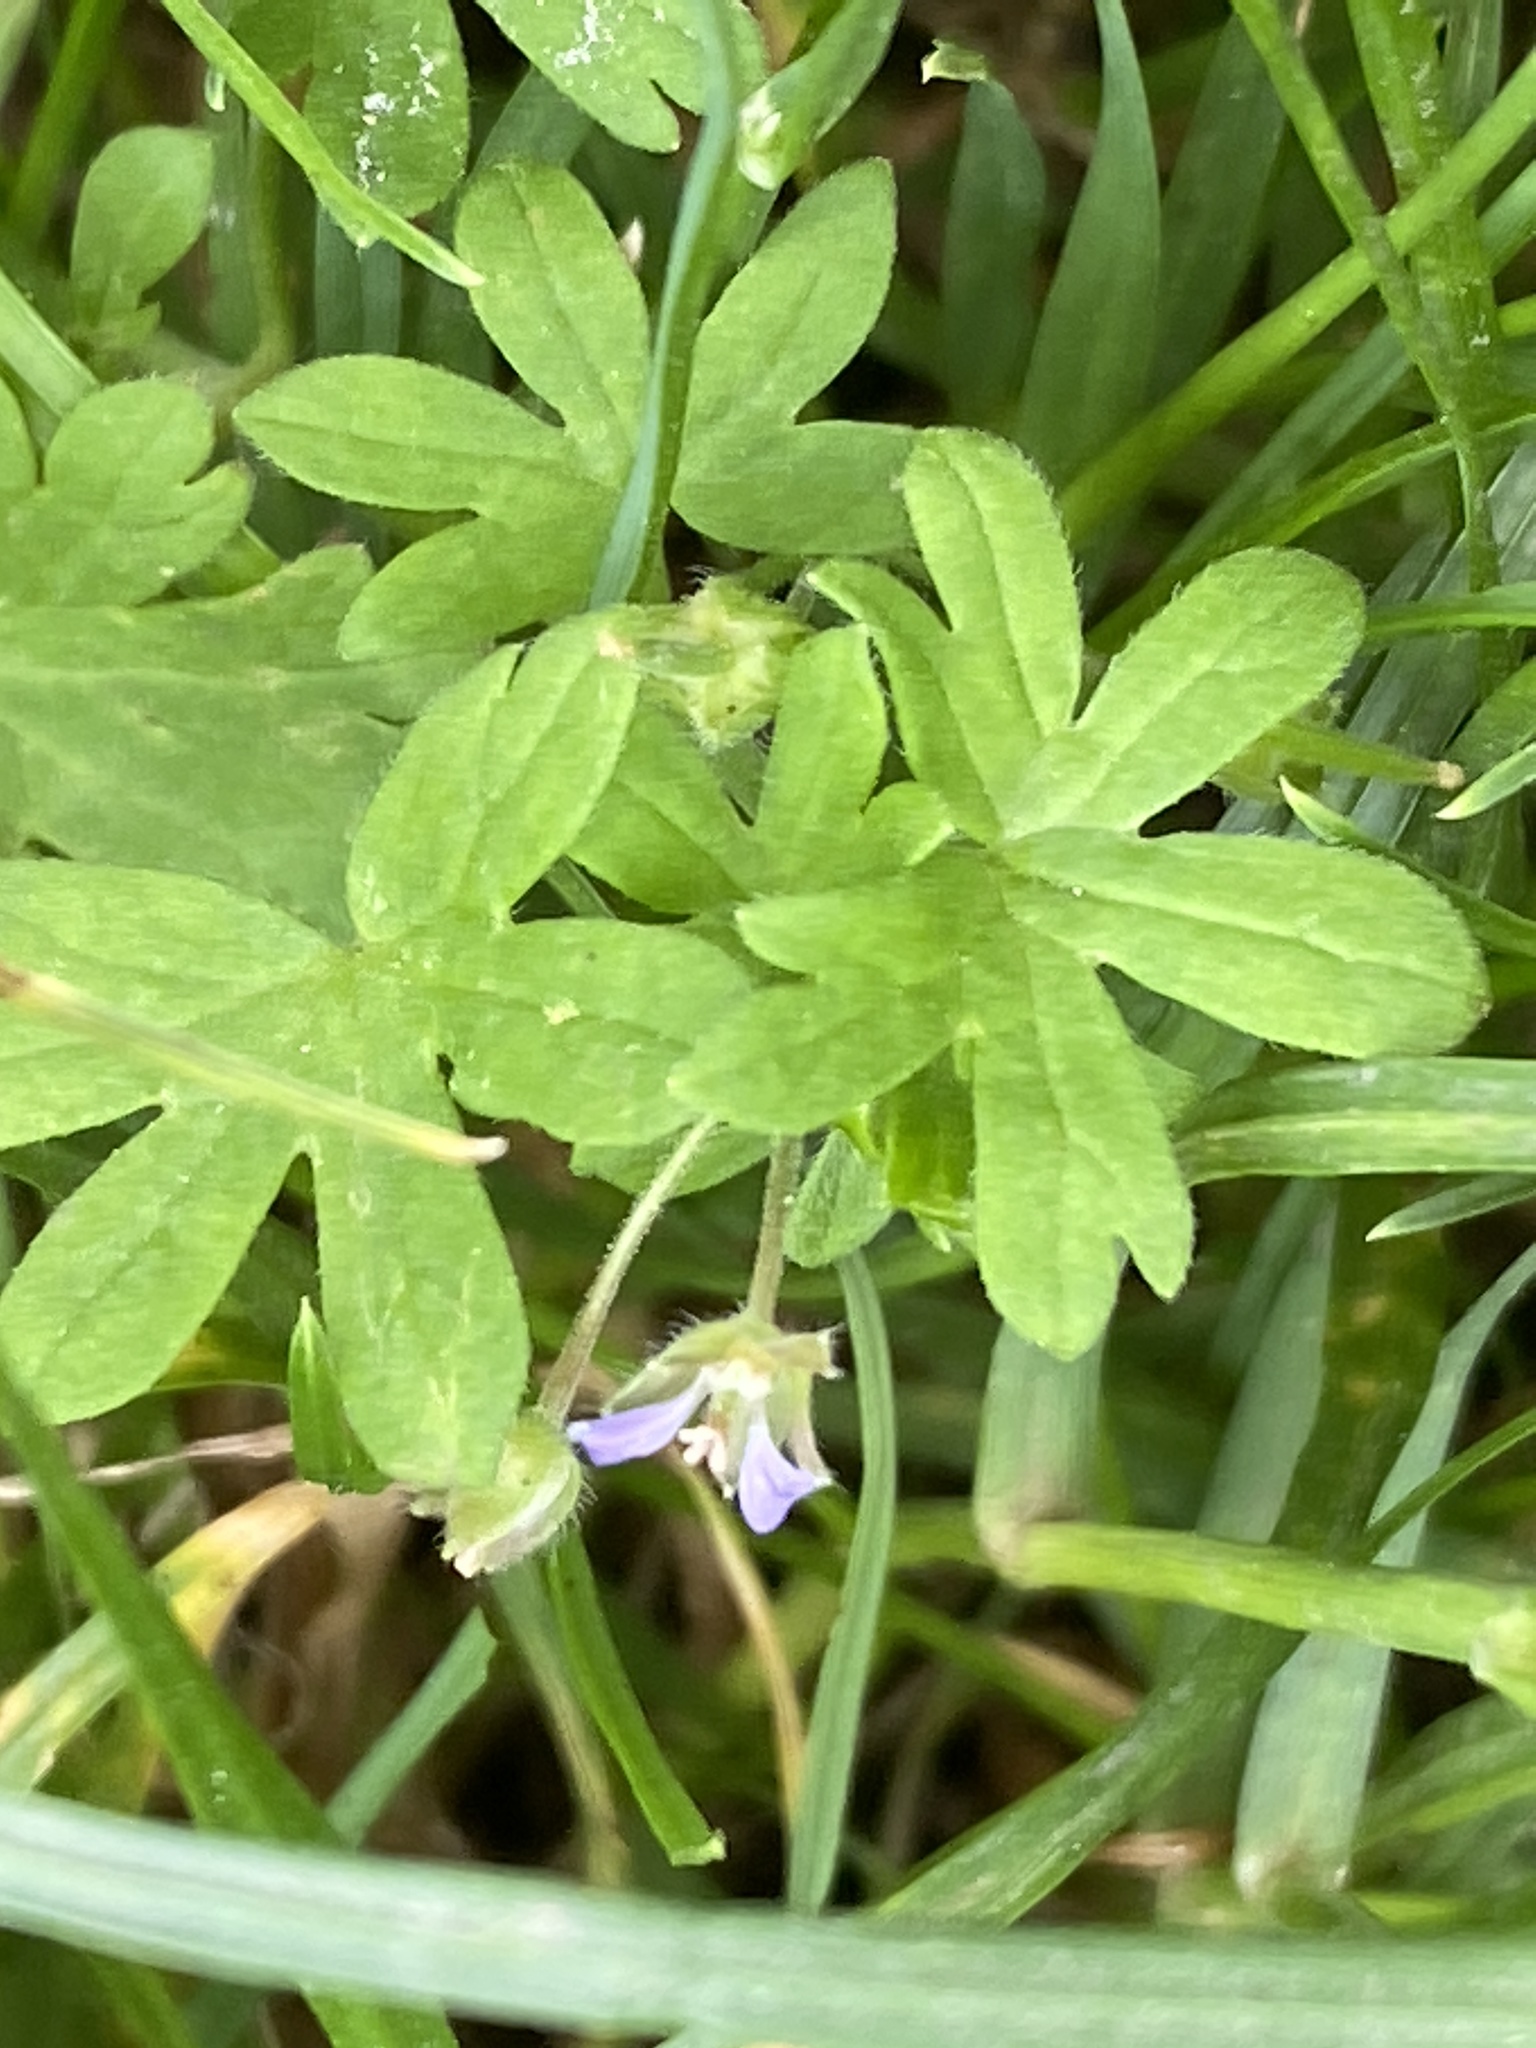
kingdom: Plantae
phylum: Tracheophyta
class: Magnoliopsida
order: Geraniales
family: Geraniaceae
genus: Geranium
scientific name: Geranium pusillum
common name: Small geranium
